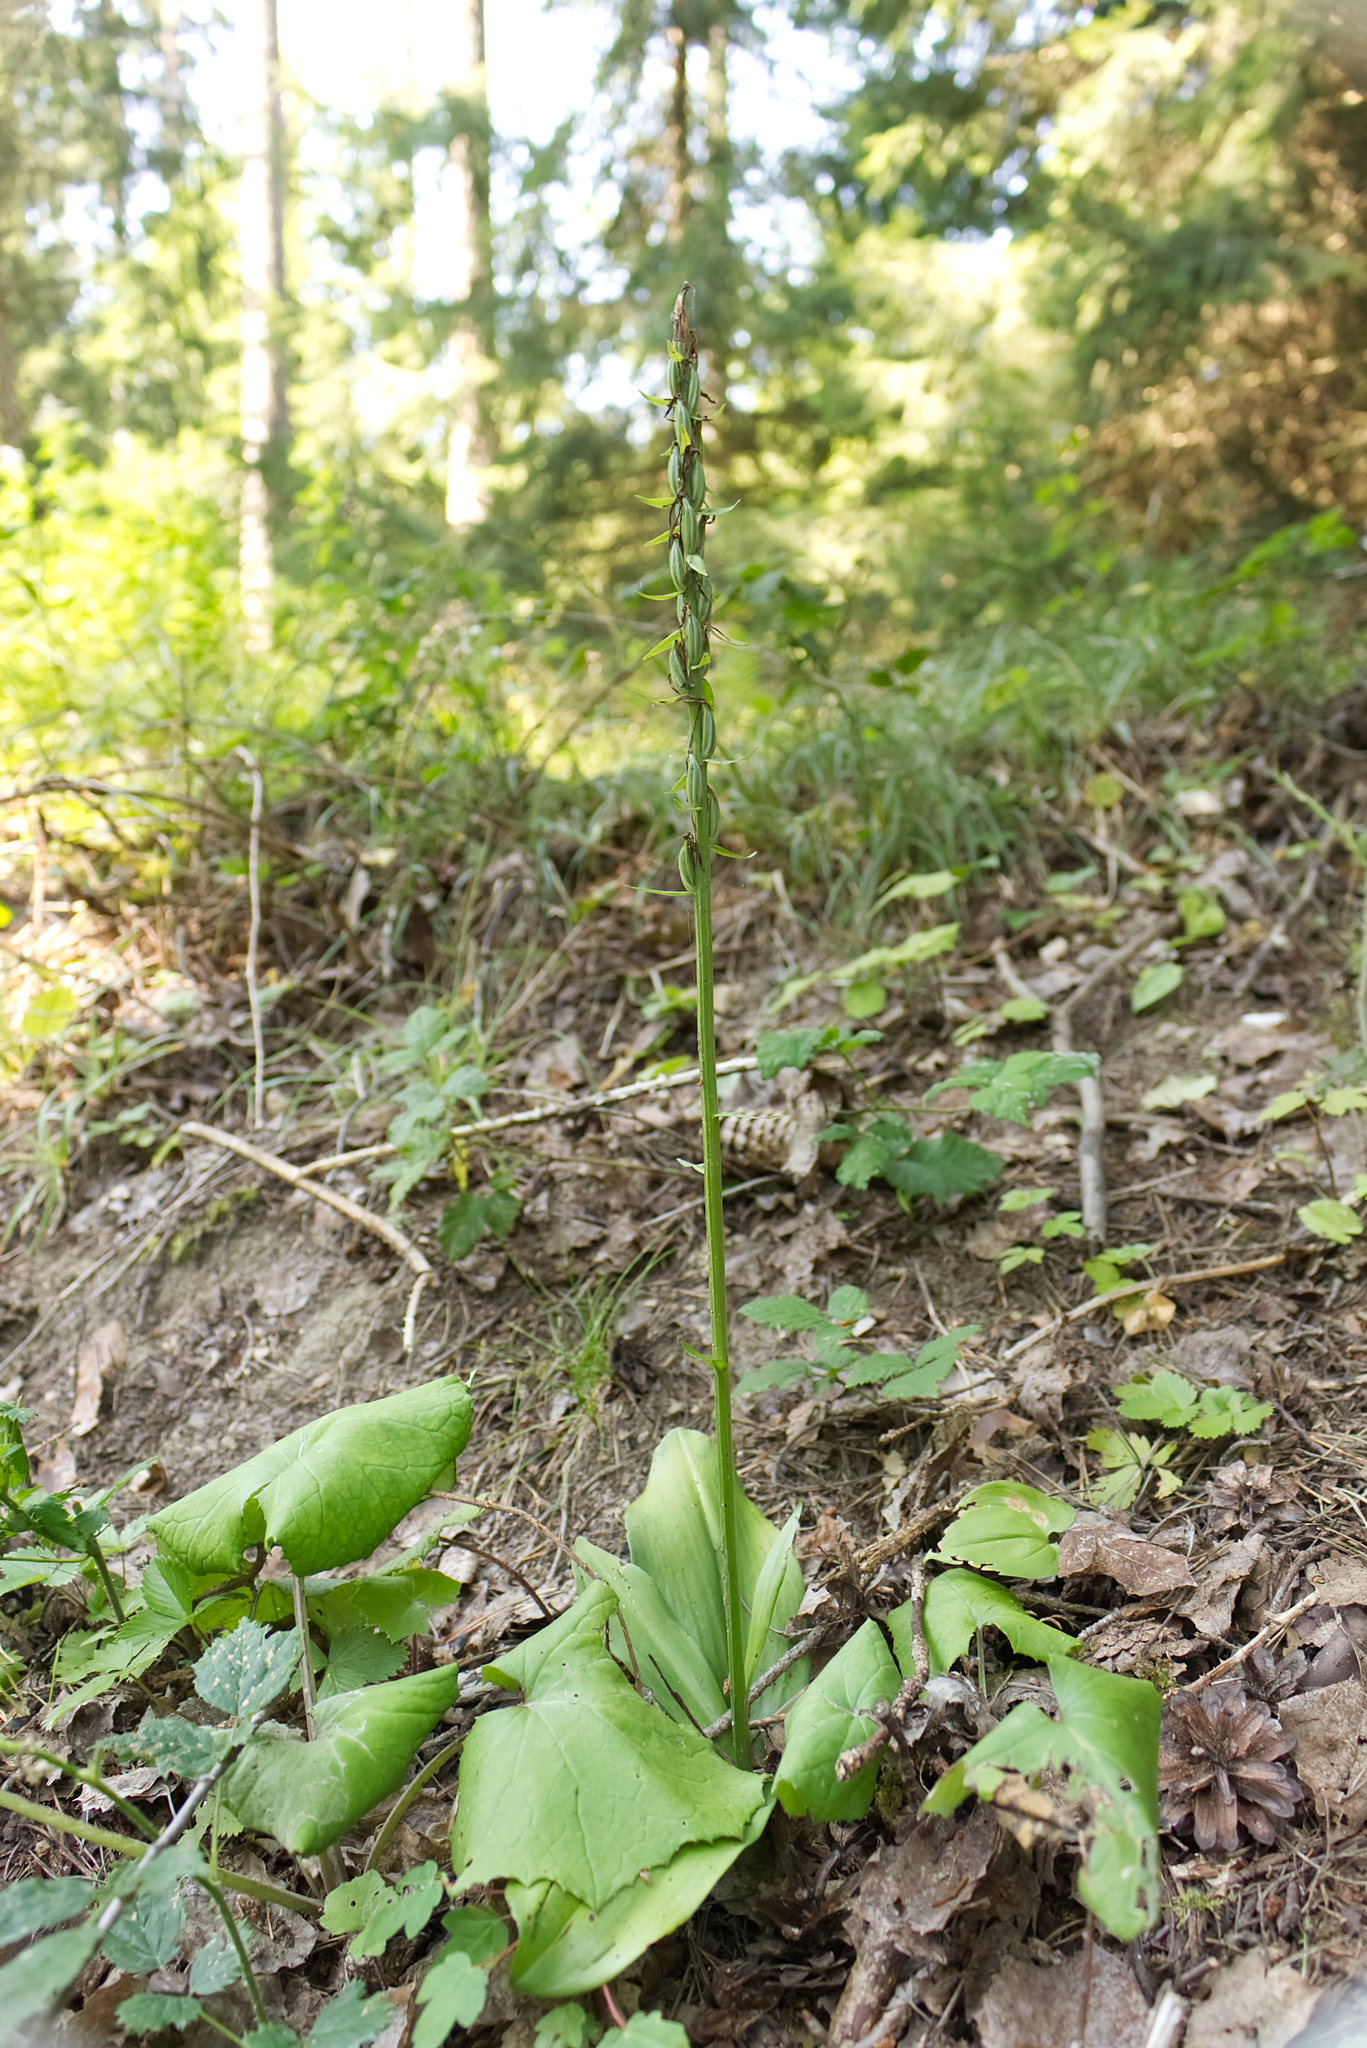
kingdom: Plantae
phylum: Tracheophyta
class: Liliopsida
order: Asparagales
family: Orchidaceae
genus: Platanthera
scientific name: Platanthera bifolia
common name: Lesser butterfly-orchid
